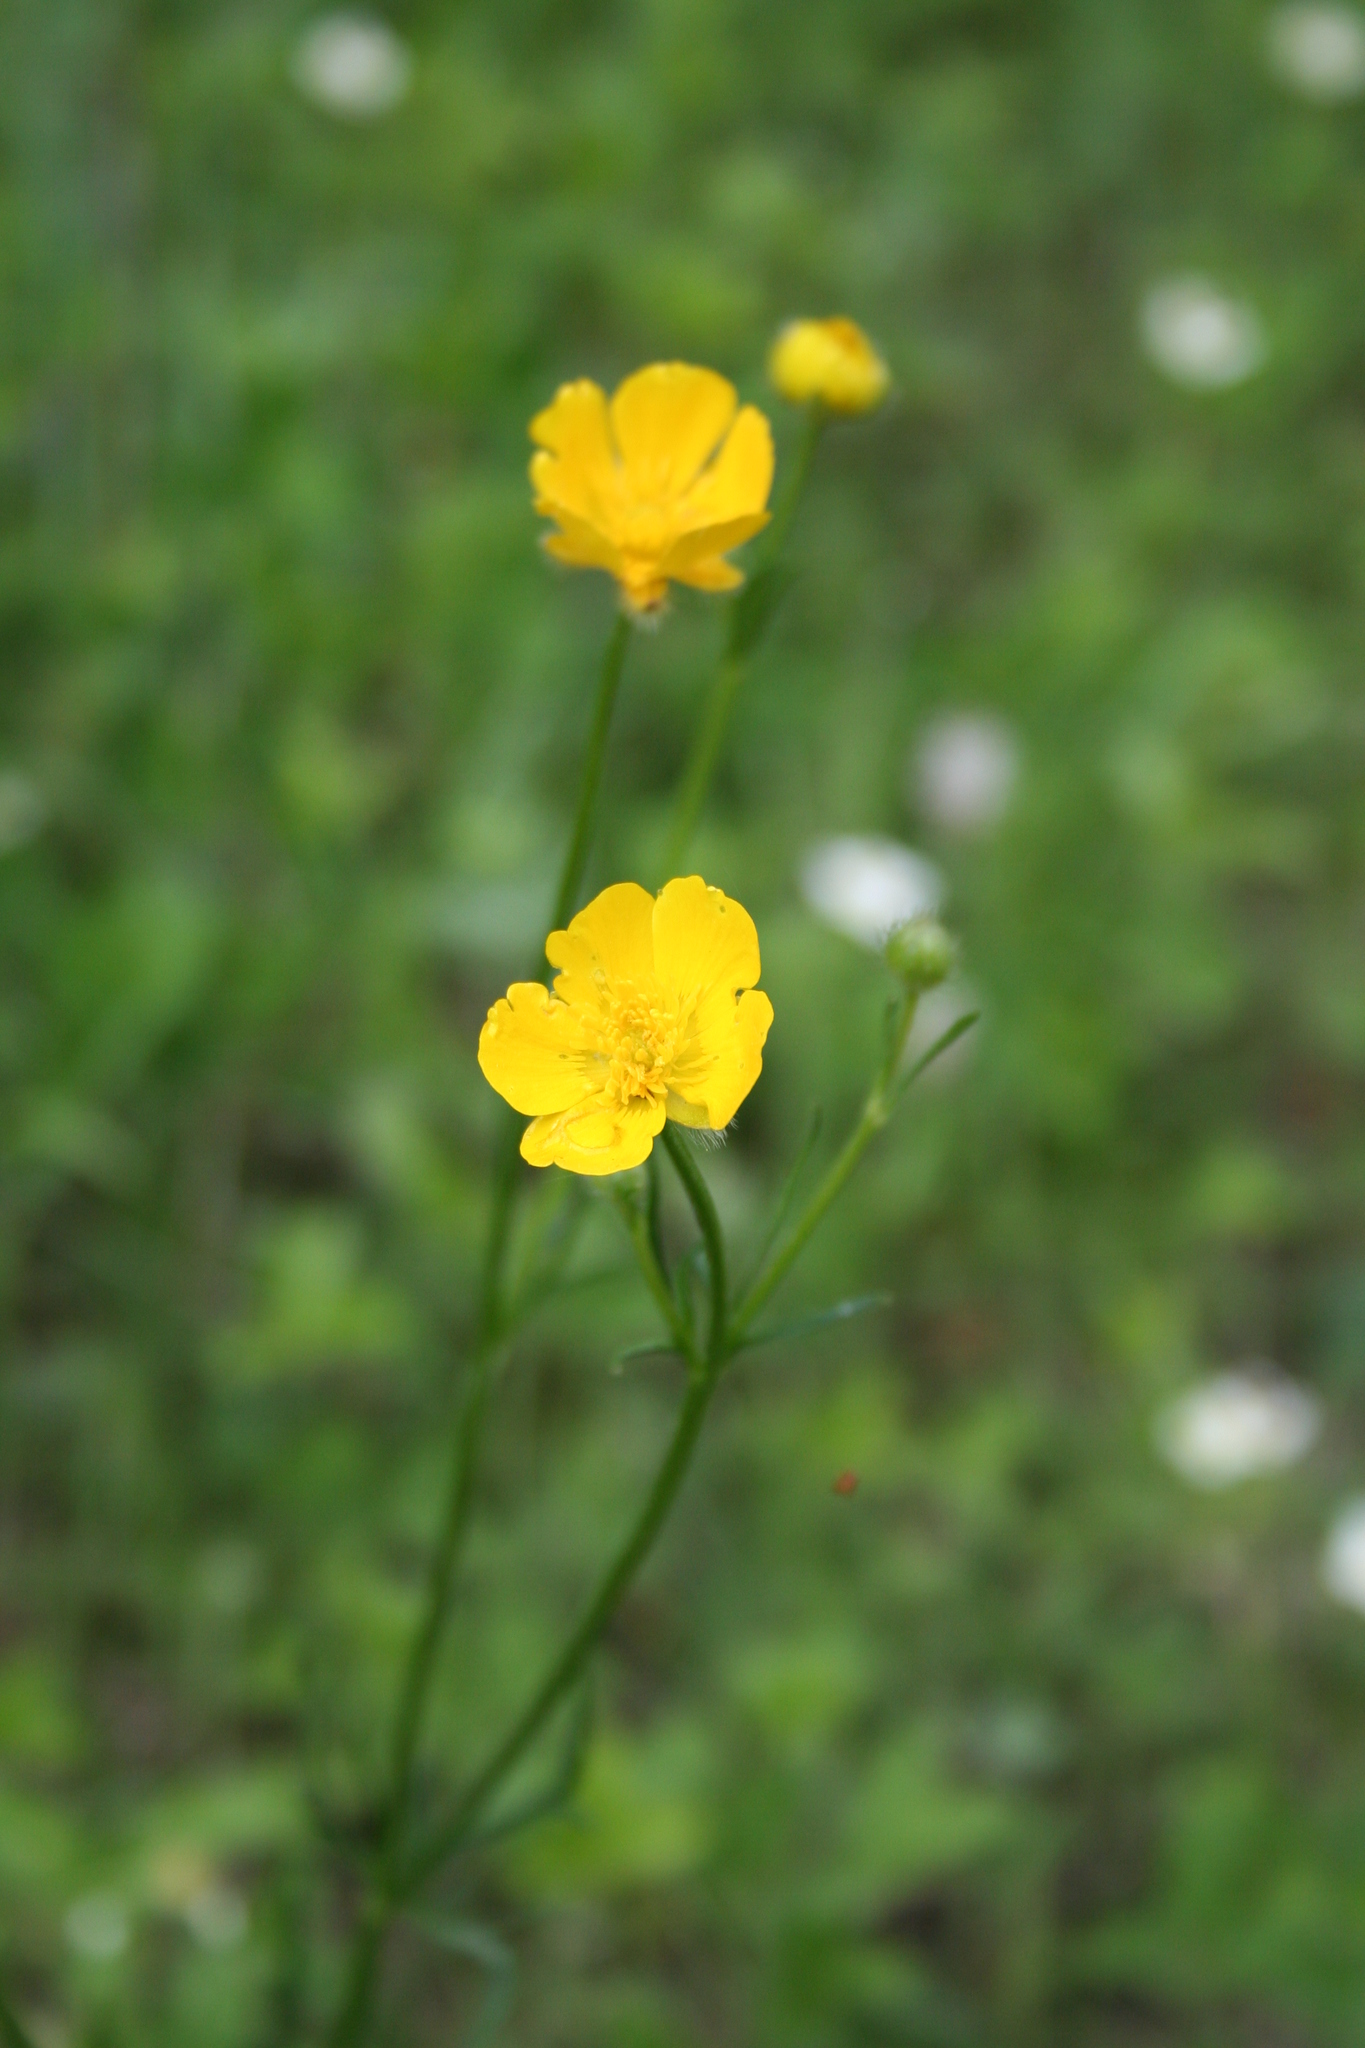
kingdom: Plantae
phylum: Tracheophyta
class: Magnoliopsida
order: Ranunculales
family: Ranunculaceae
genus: Ranunculus
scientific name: Ranunculus polyanthemos
